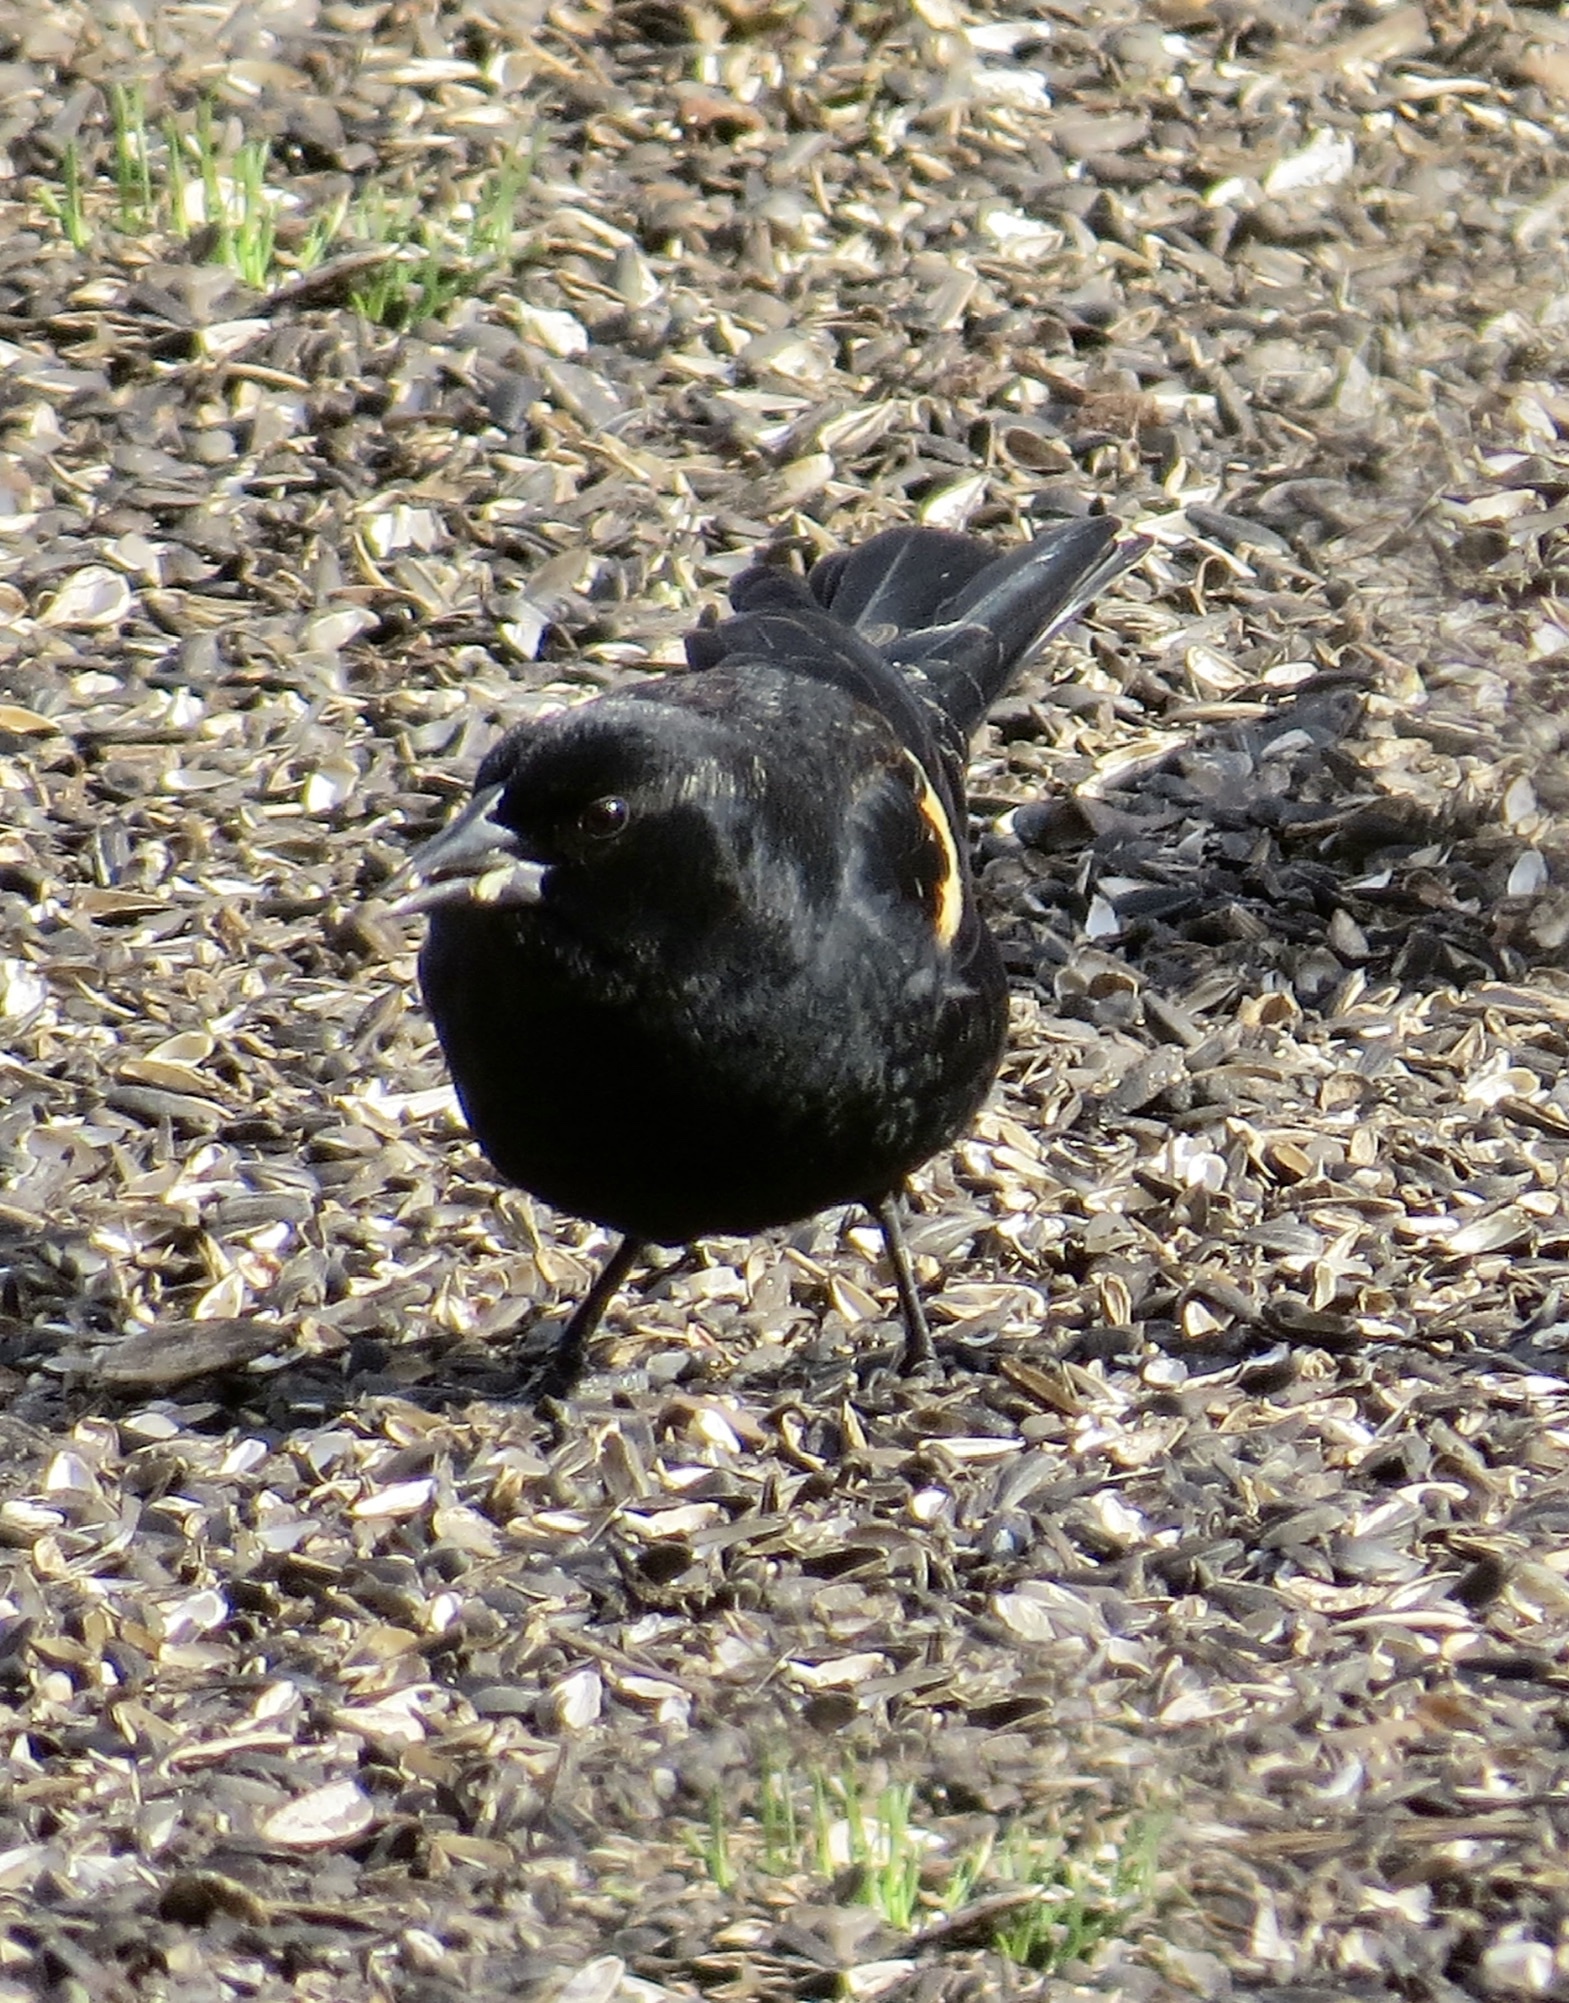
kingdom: Animalia
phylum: Chordata
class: Aves
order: Passeriformes
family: Icteridae
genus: Agelaius
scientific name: Agelaius phoeniceus
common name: Red-winged blackbird
